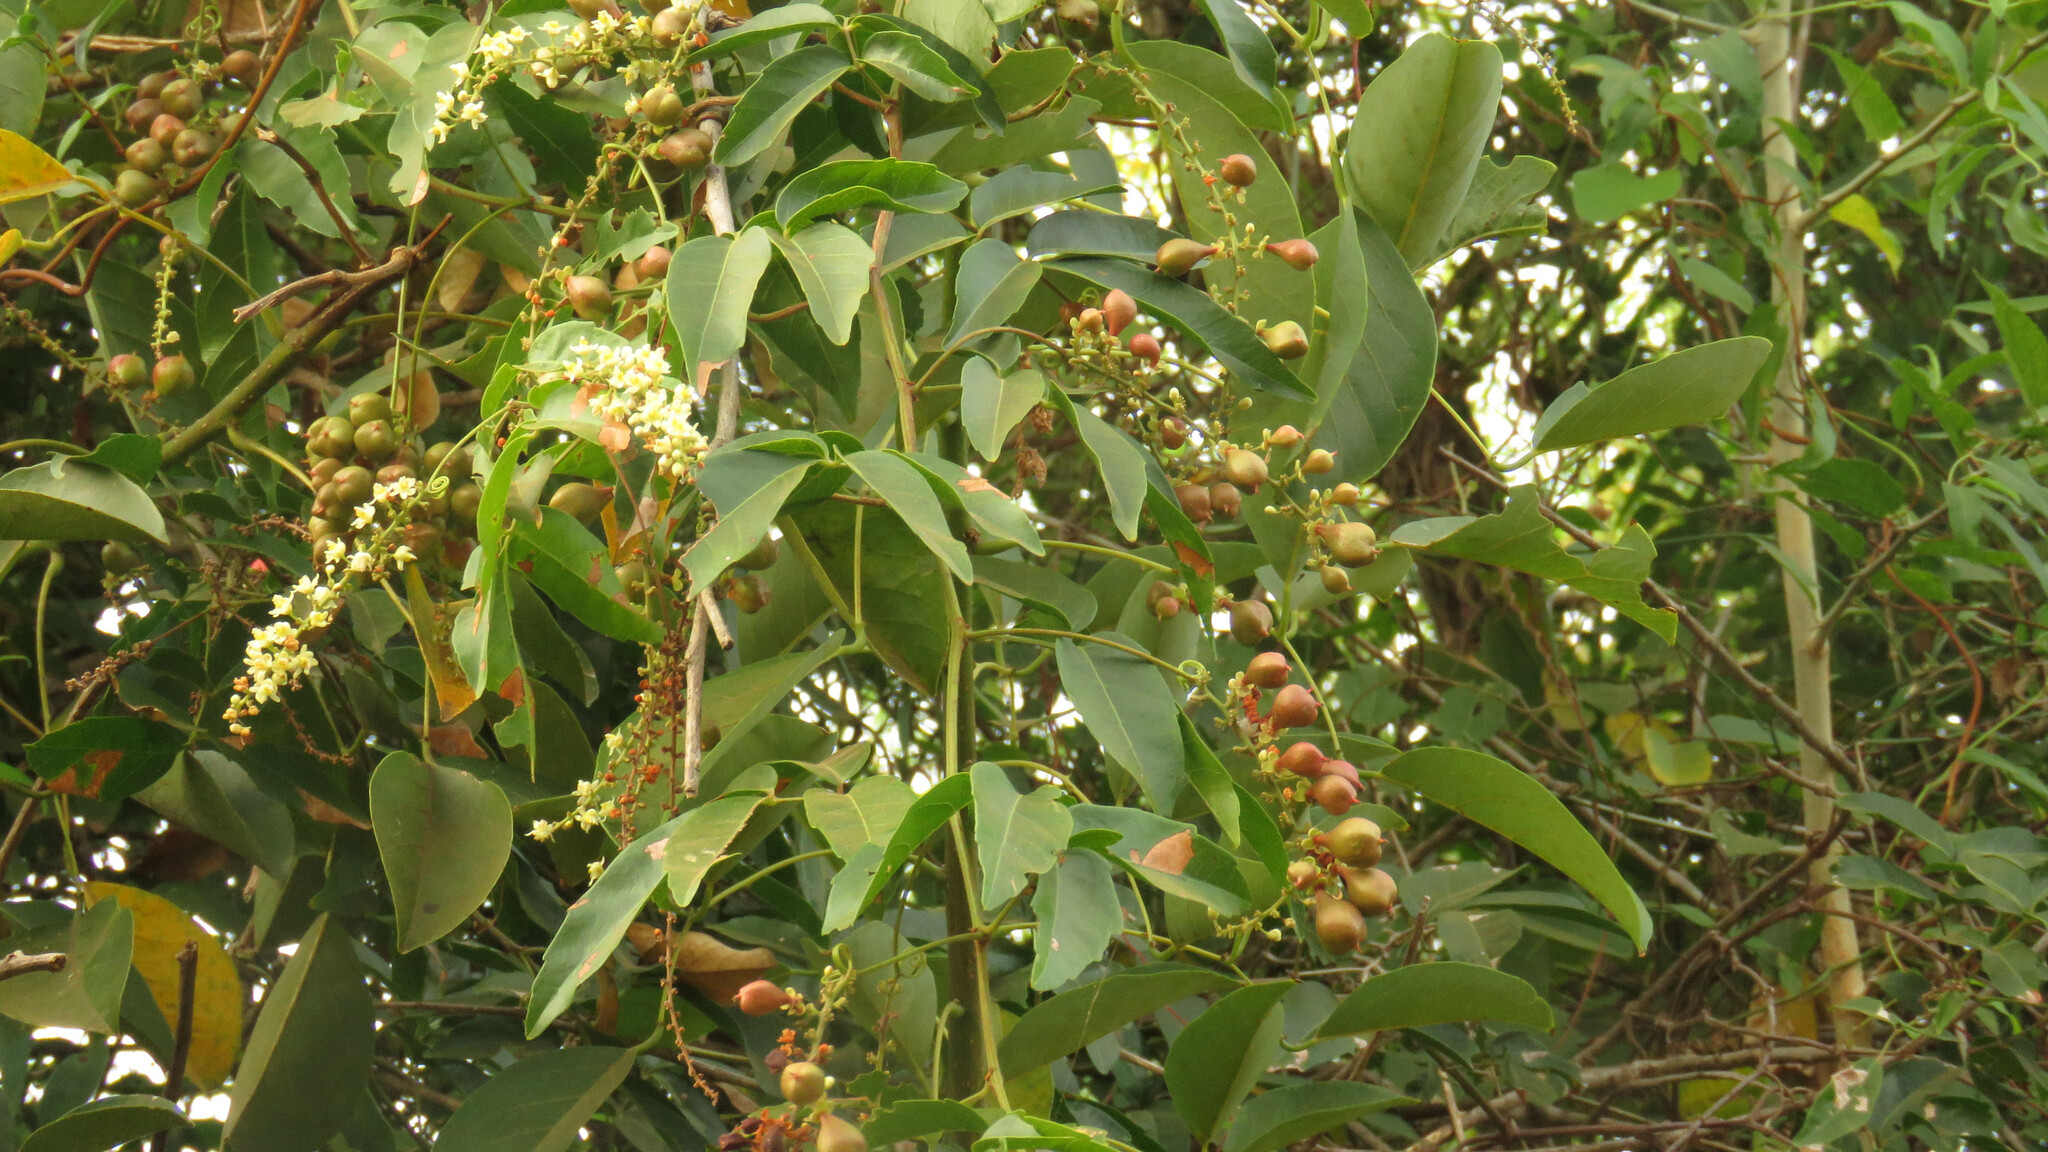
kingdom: Plantae
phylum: Tracheophyta
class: Magnoliopsida
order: Sapindales
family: Sapindaceae
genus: Paullinia
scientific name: Paullinia elegans
